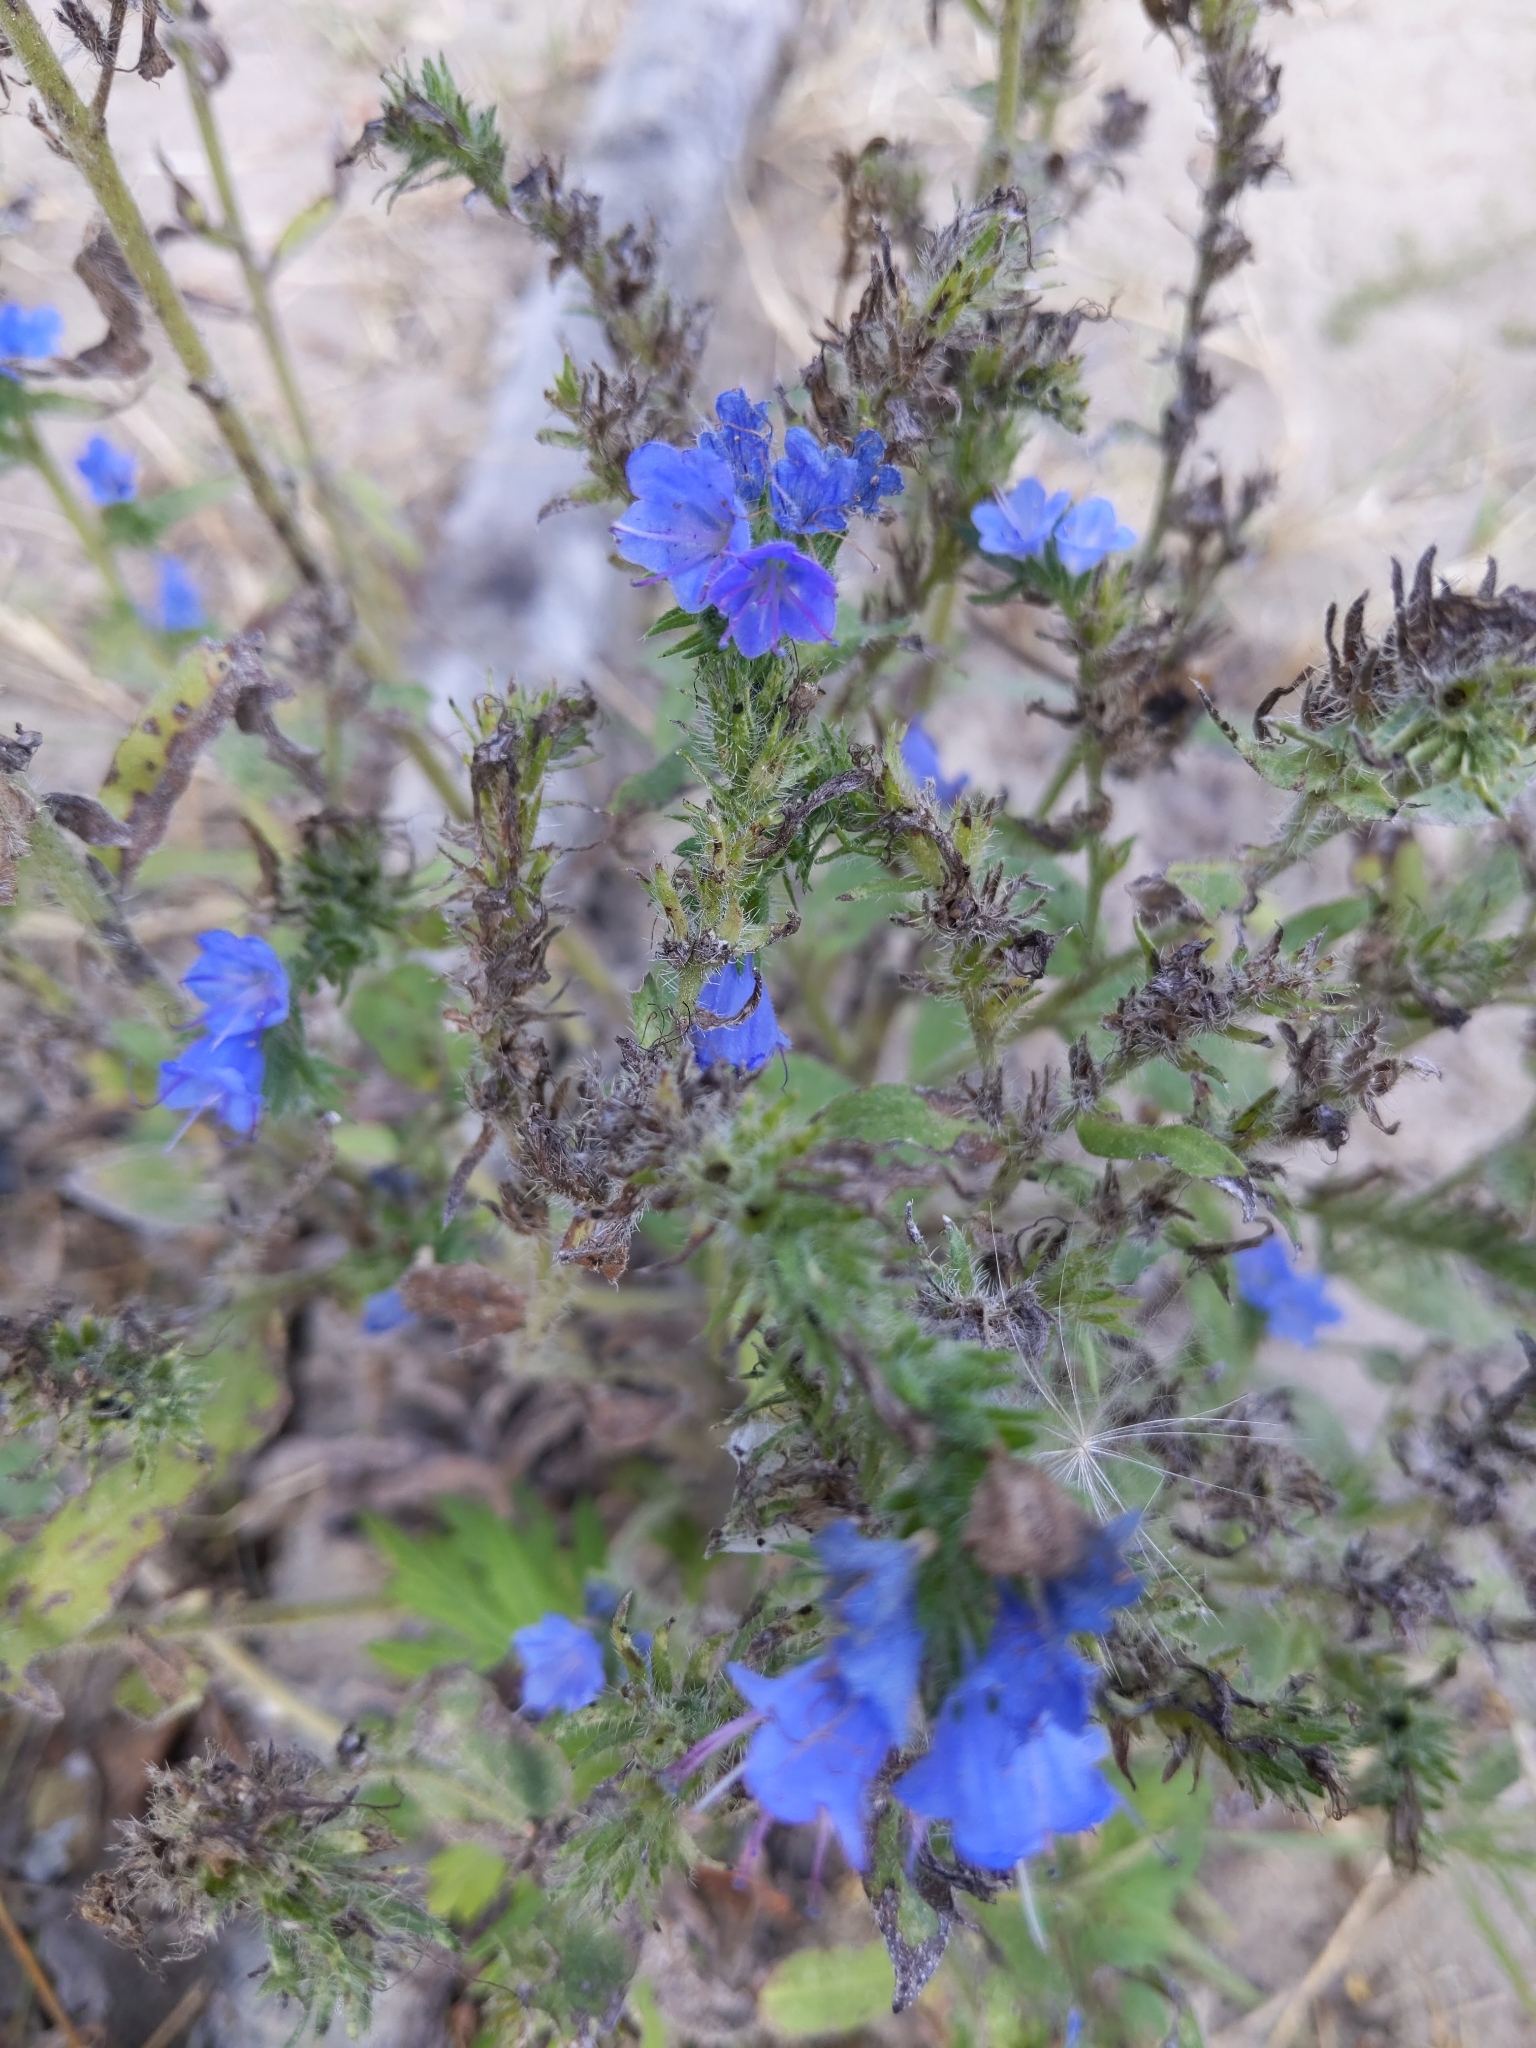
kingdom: Plantae
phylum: Tracheophyta
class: Magnoliopsida
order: Boraginales
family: Boraginaceae
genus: Echium
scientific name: Echium vulgare
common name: Common viper's bugloss
